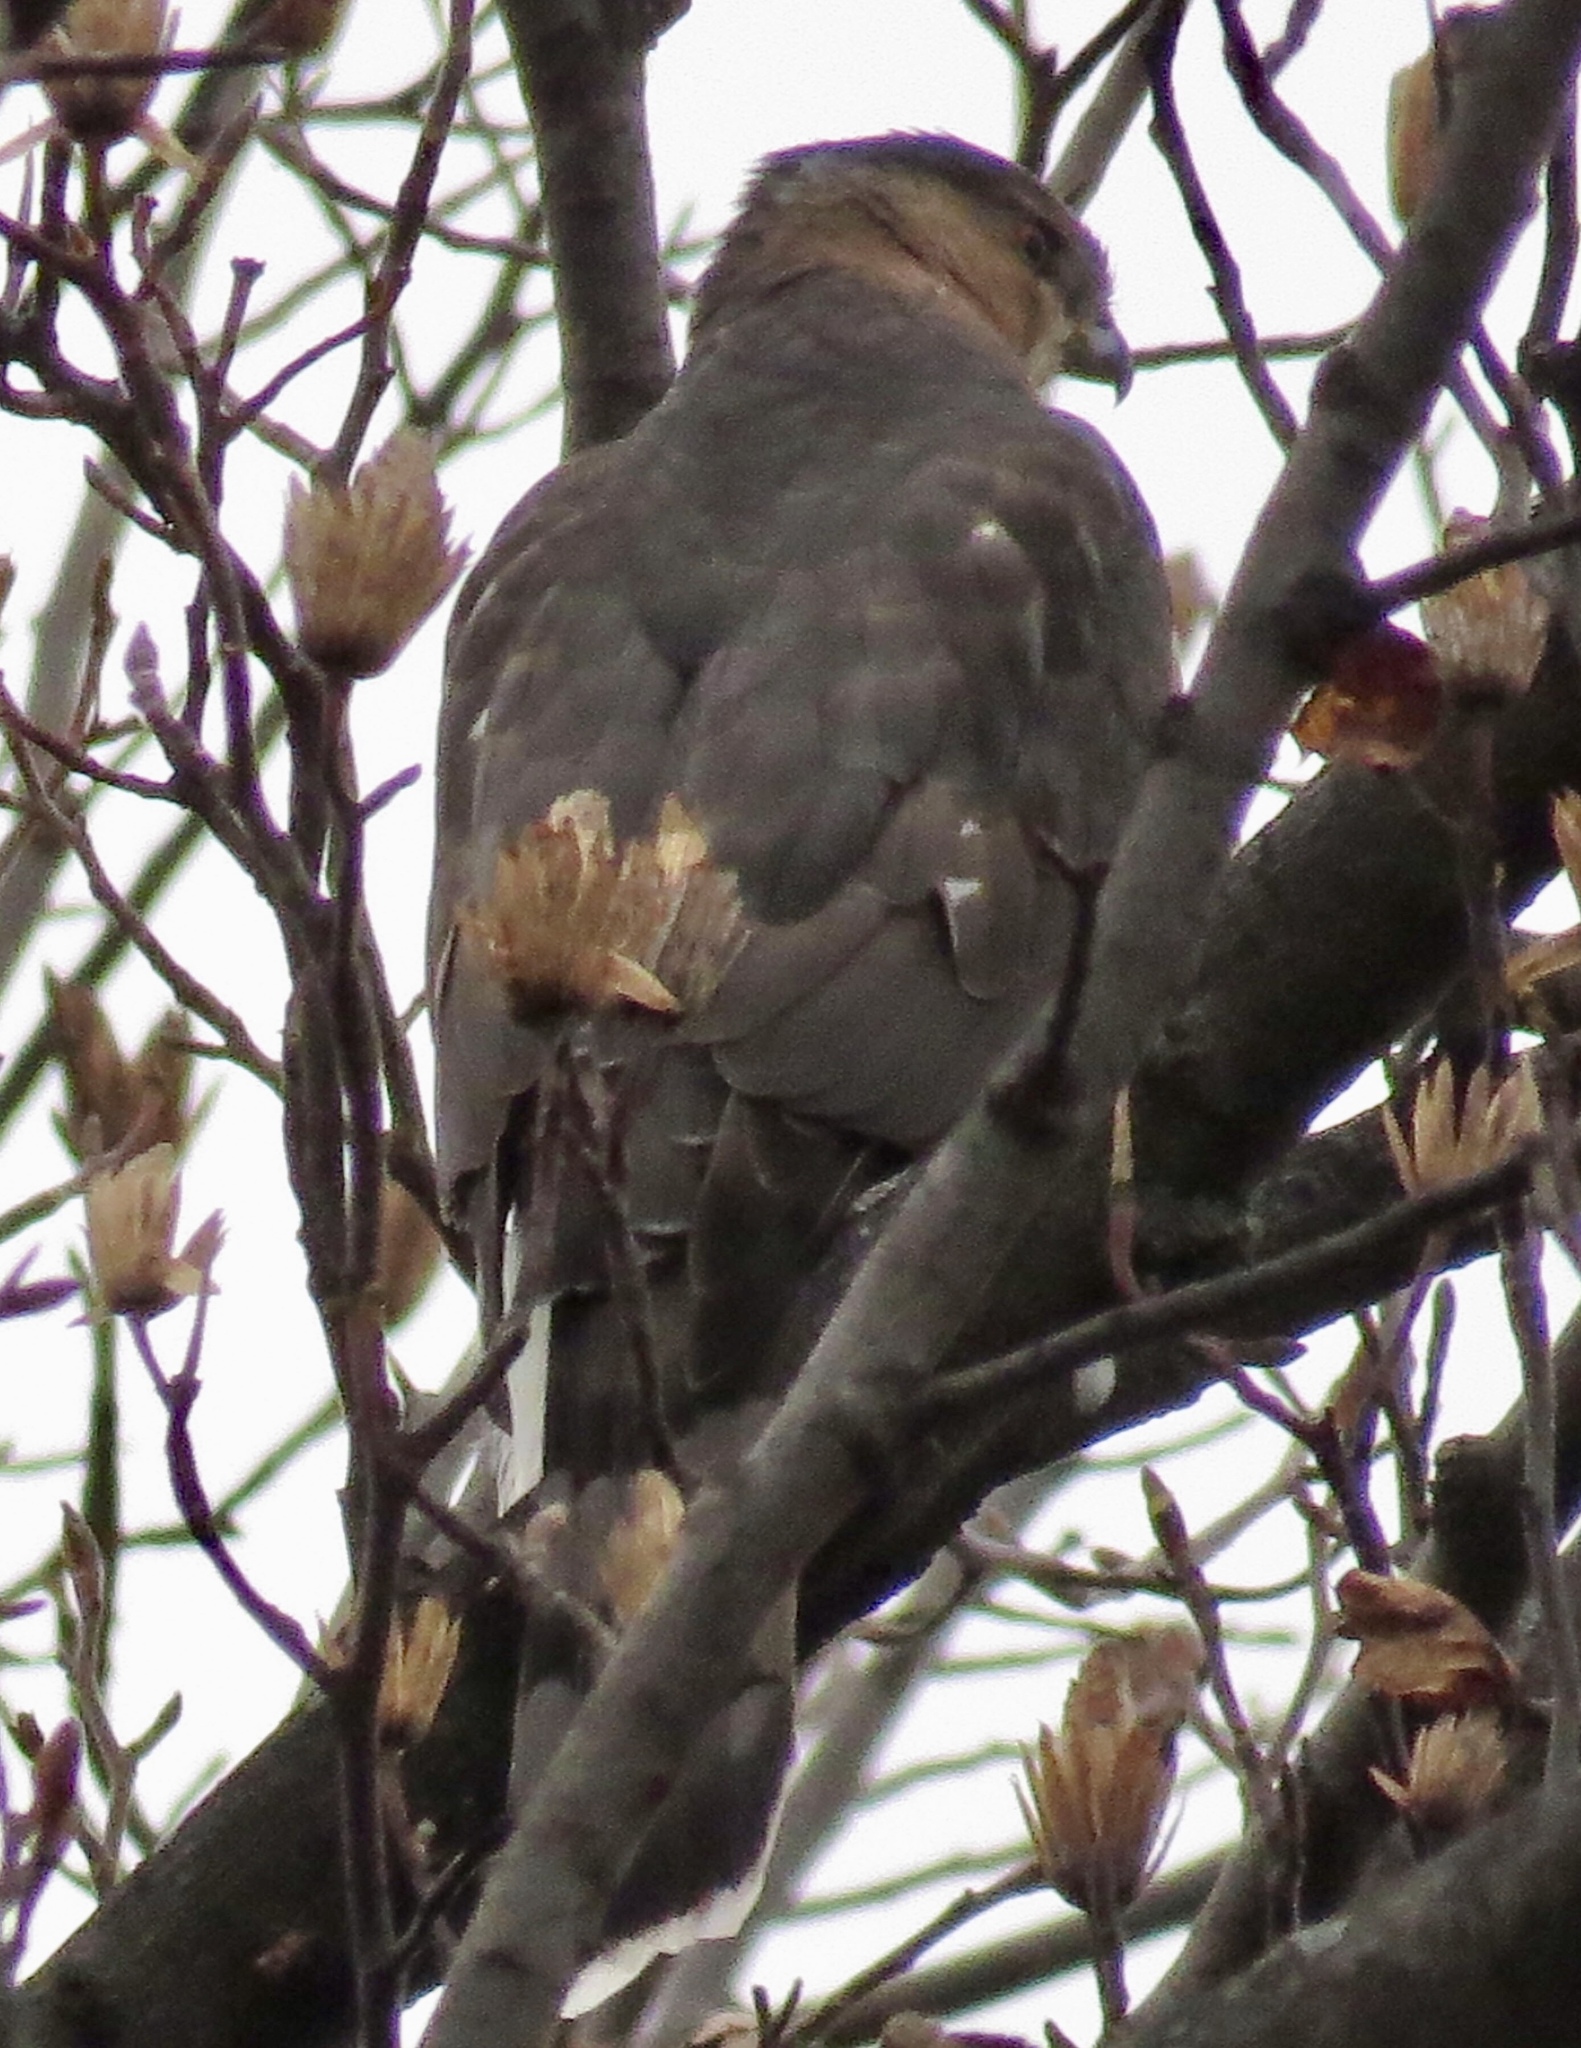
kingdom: Animalia
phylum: Chordata
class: Aves
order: Accipitriformes
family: Accipitridae
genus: Accipiter
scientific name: Accipiter cooperii
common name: Cooper's hawk
